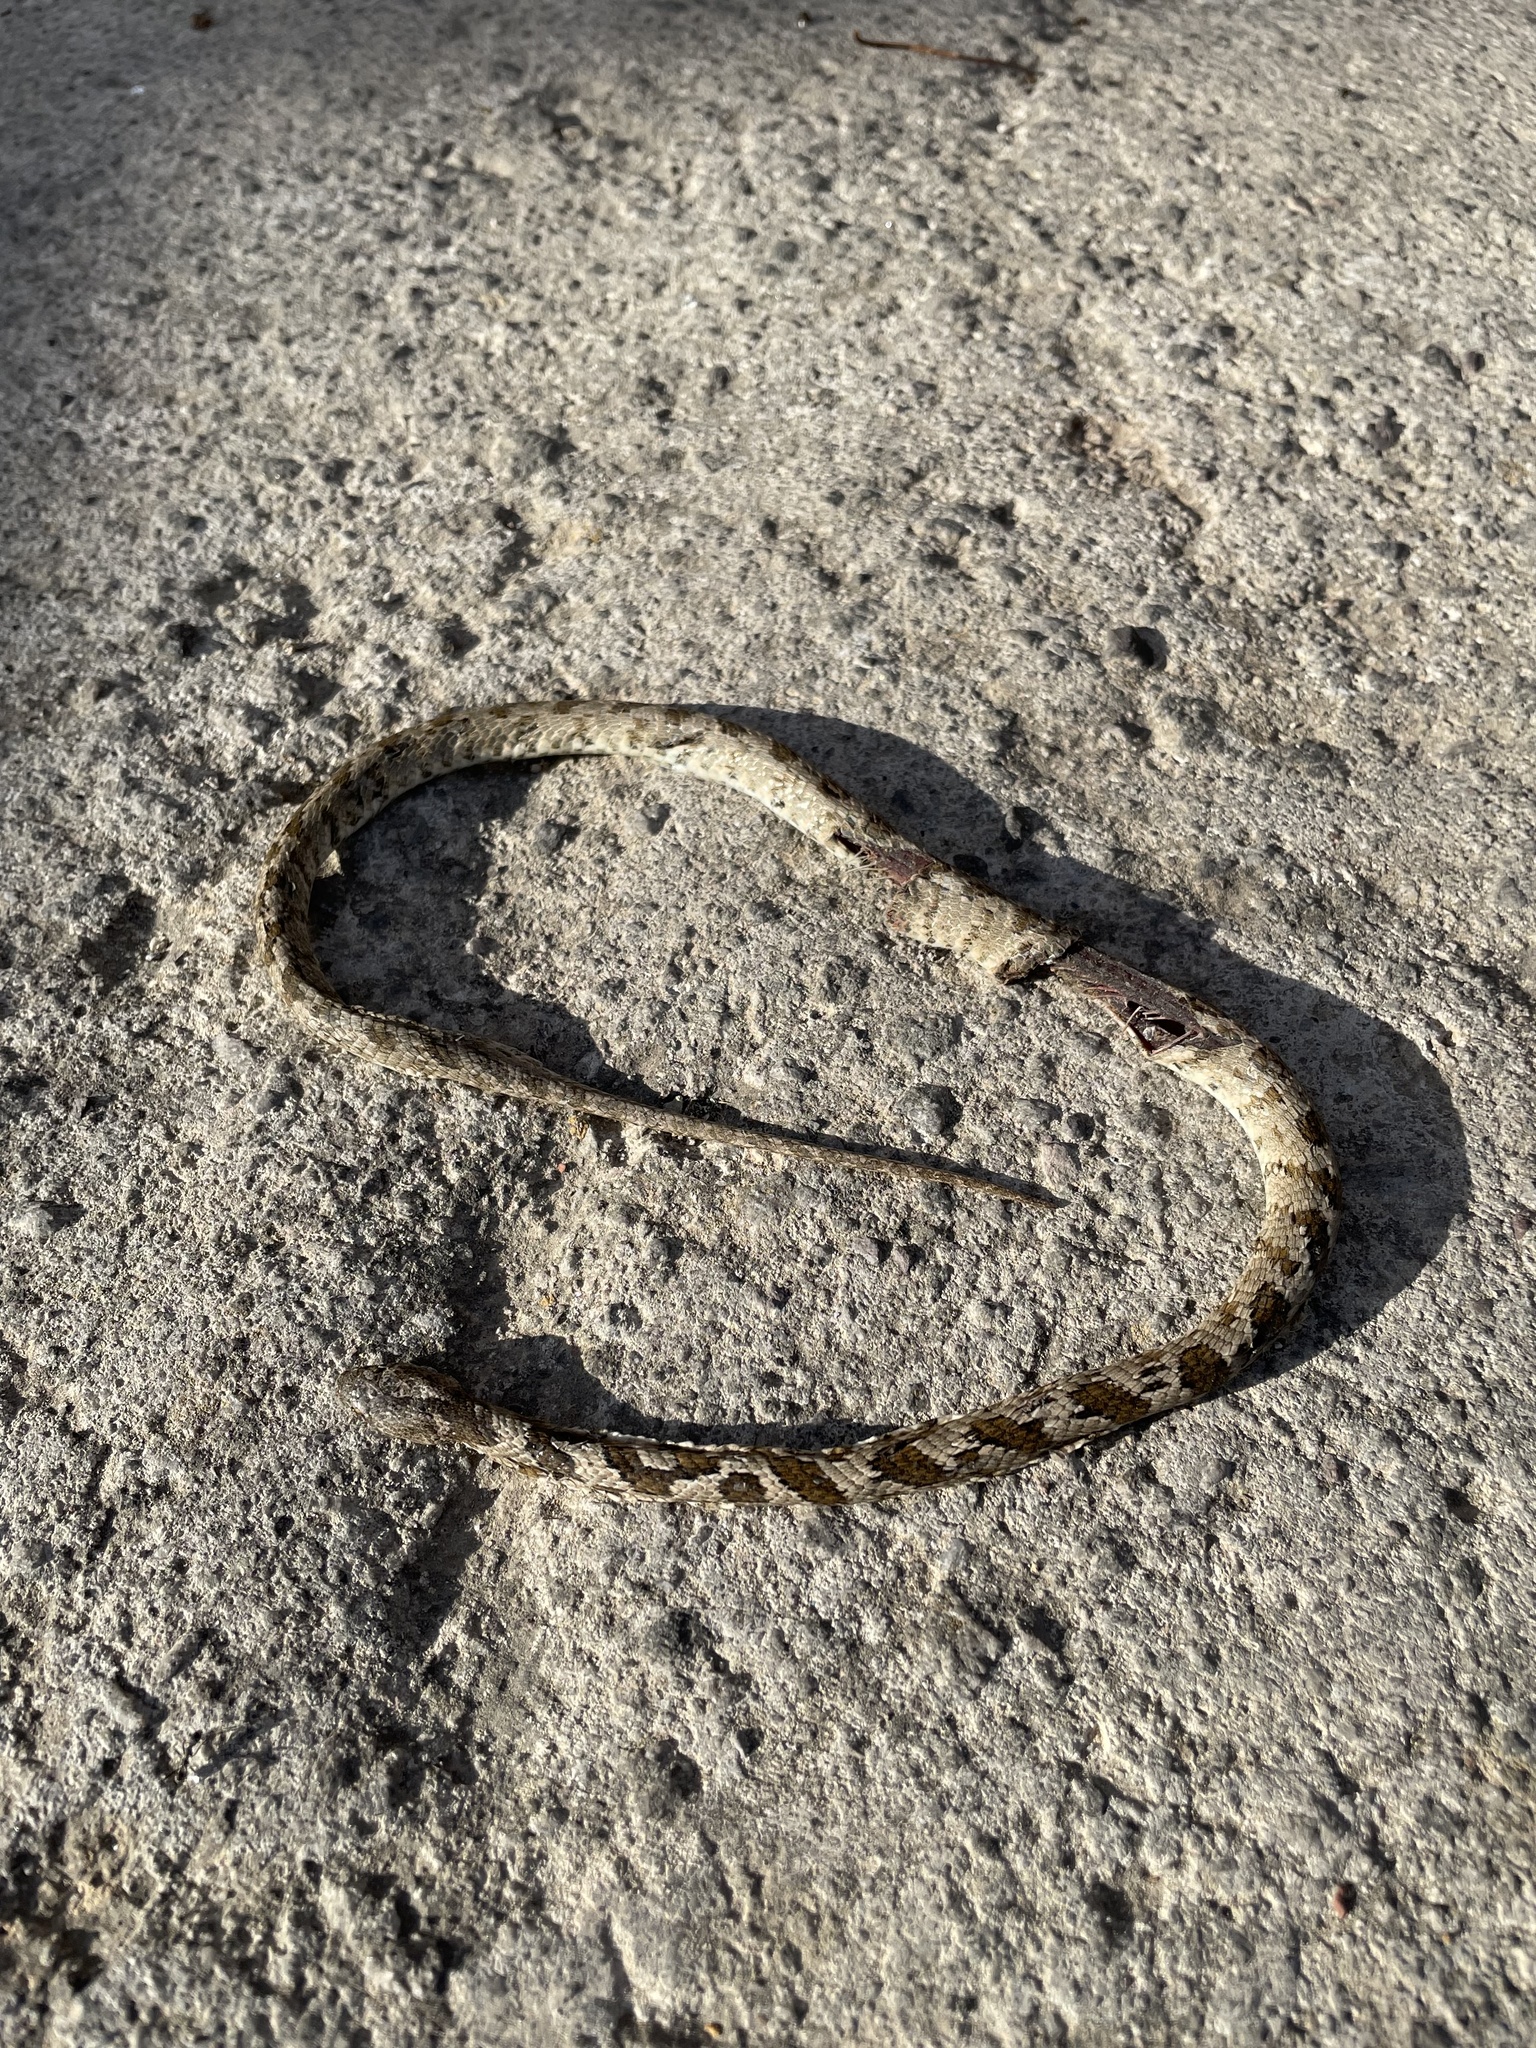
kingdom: Animalia
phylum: Chordata
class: Squamata
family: Colubridae
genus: Telescopus
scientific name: Telescopus fallax
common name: Cat snake
